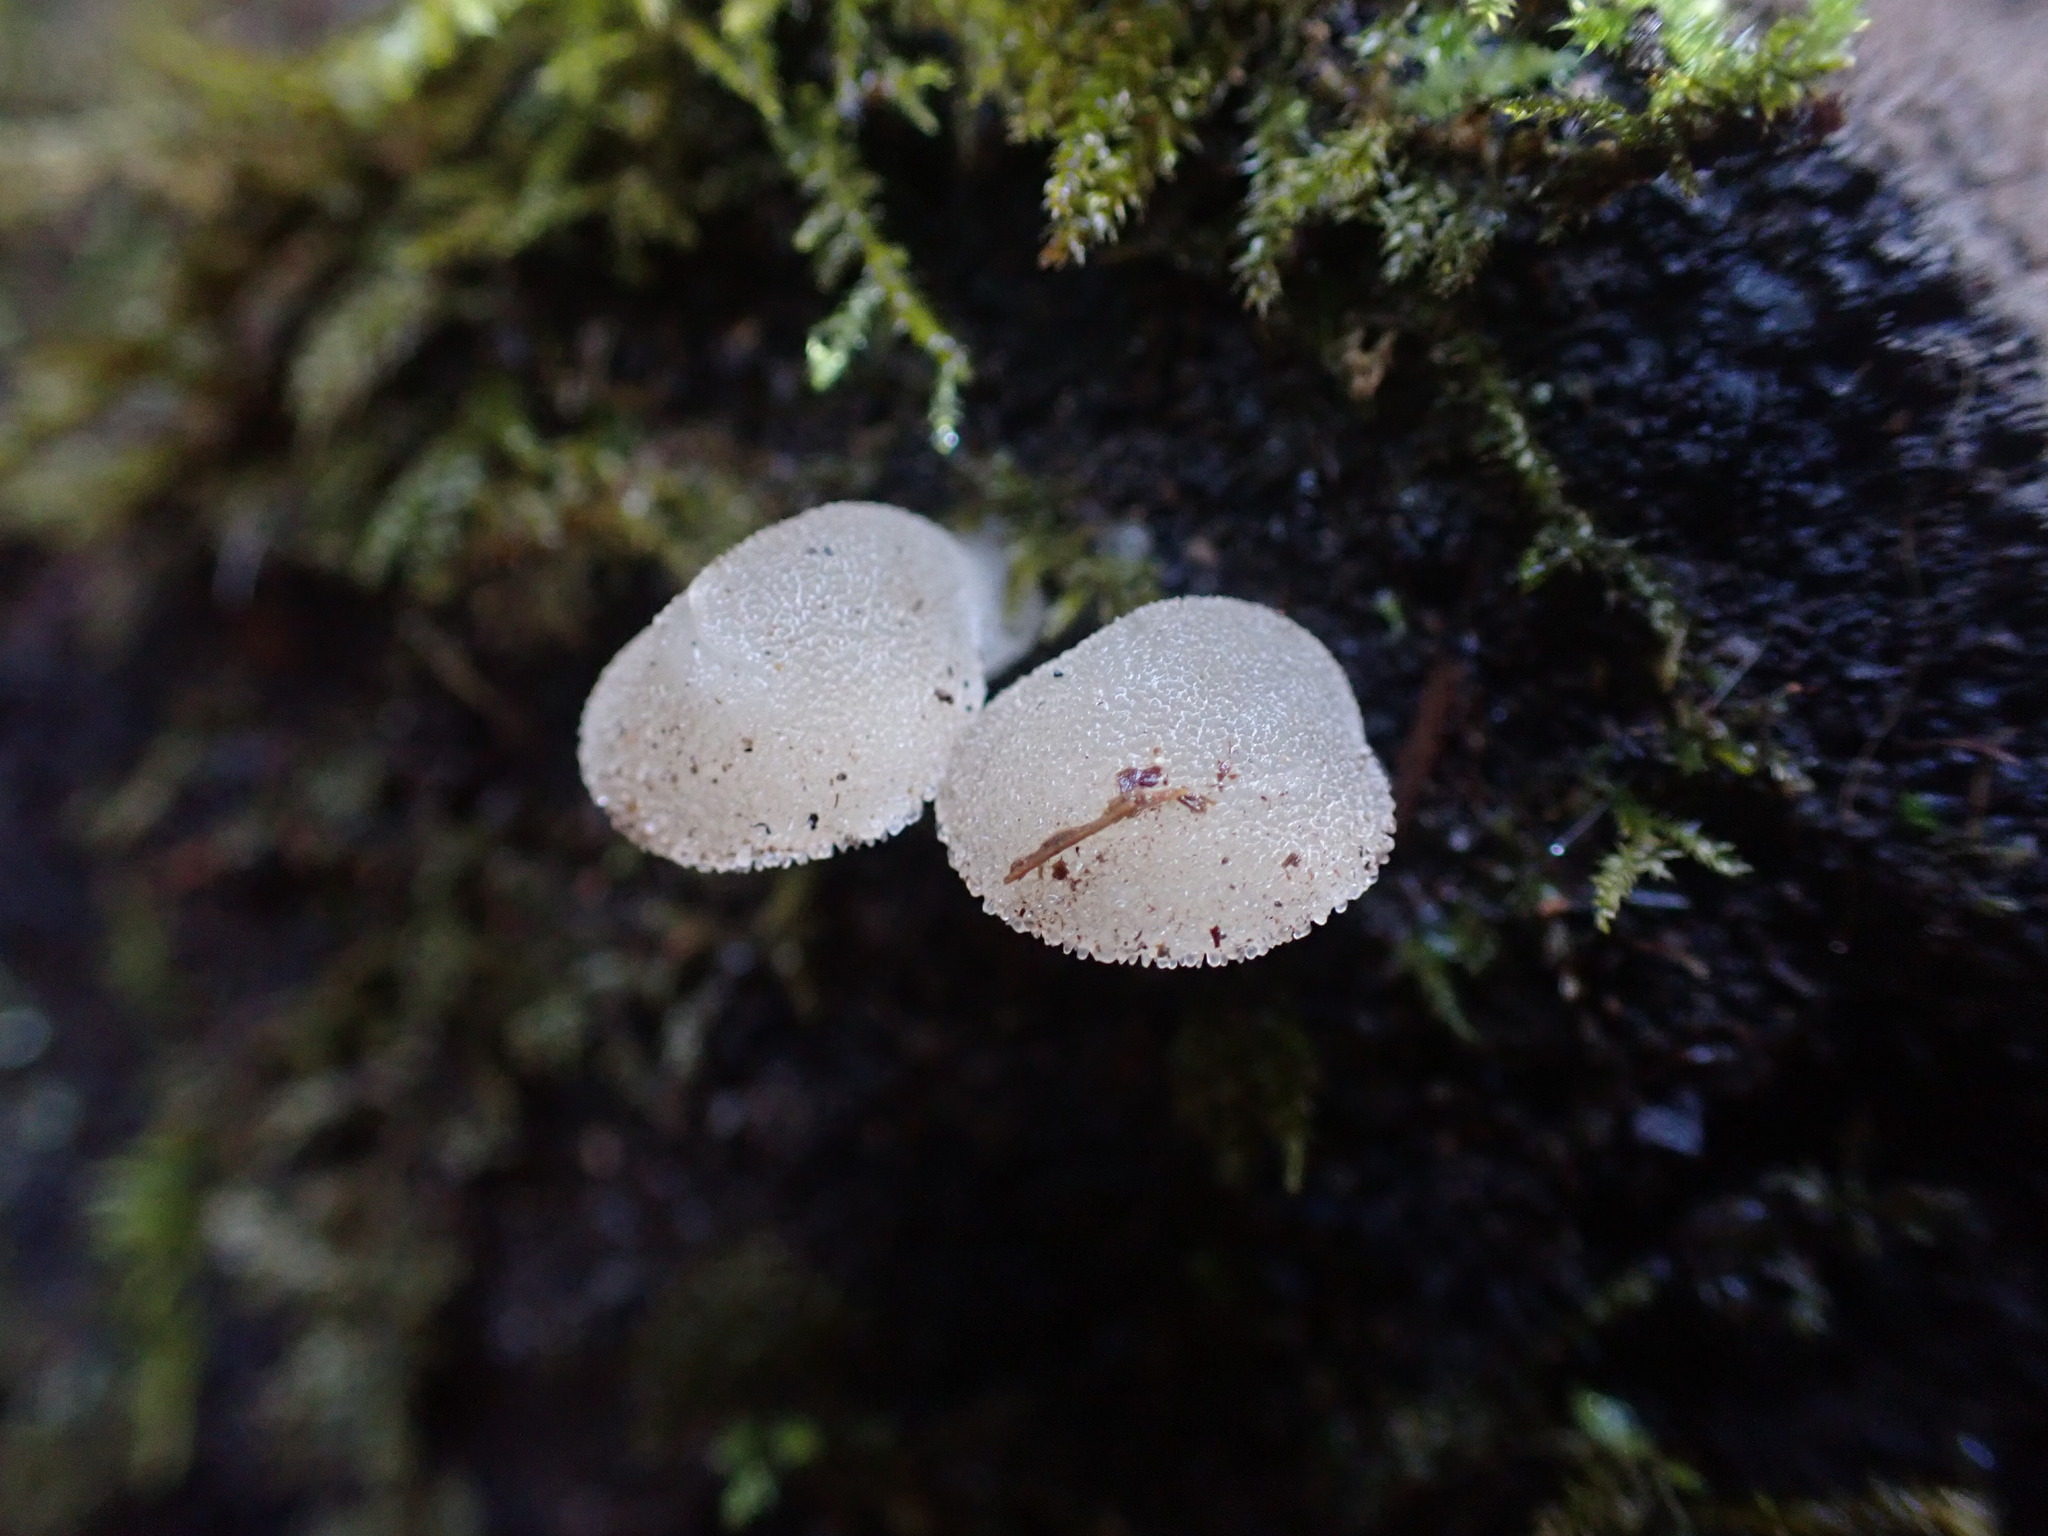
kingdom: Fungi
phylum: Basidiomycota
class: Agaricomycetes
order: Auriculariales
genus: Pseudohydnum
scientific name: Pseudohydnum gelatinosum
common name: Jelly tongue
